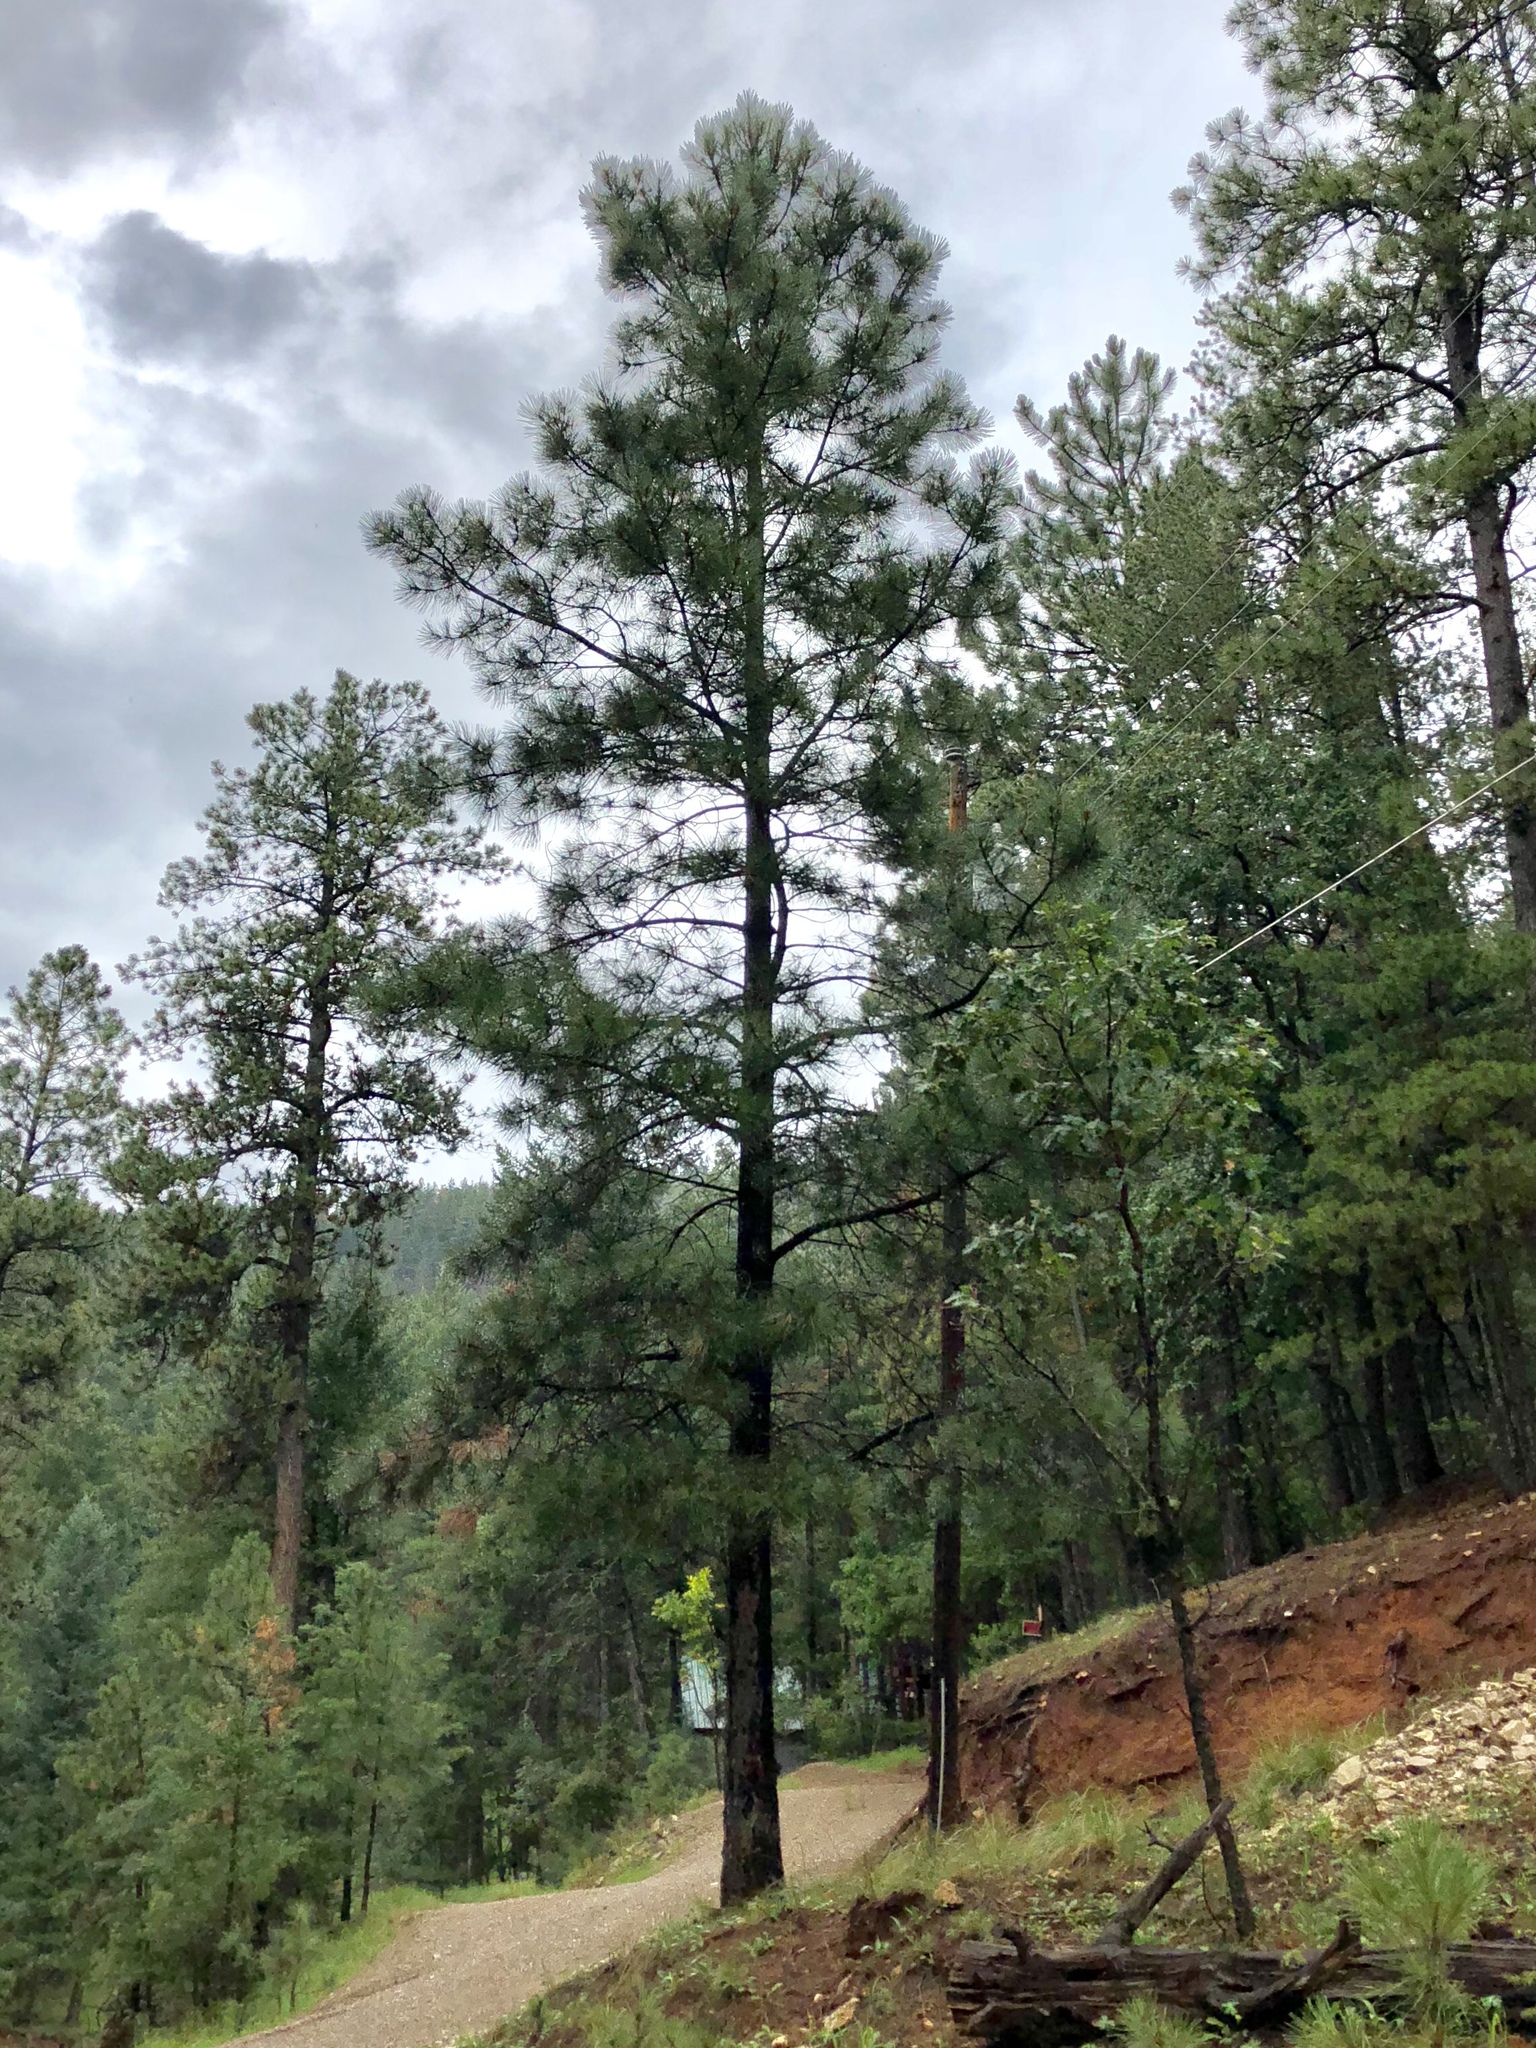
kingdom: Plantae
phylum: Tracheophyta
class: Pinopsida
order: Pinales
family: Pinaceae
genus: Pinus
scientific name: Pinus ponderosa
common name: Western yellow-pine
